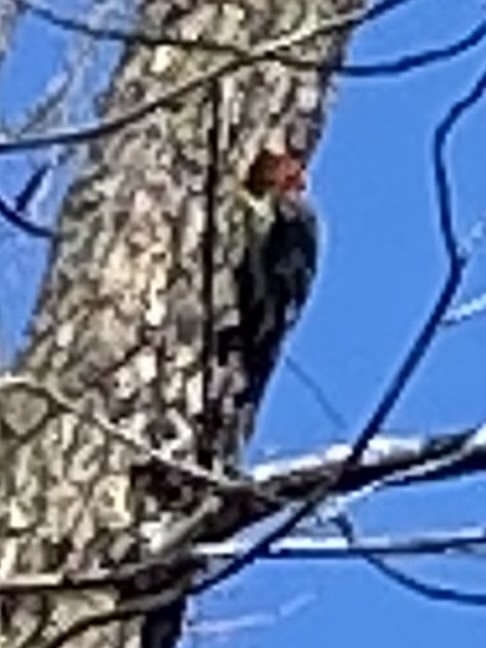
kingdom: Animalia
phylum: Chordata
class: Aves
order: Piciformes
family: Picidae
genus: Dryocopus
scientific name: Dryocopus pileatus
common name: Pileated woodpecker
